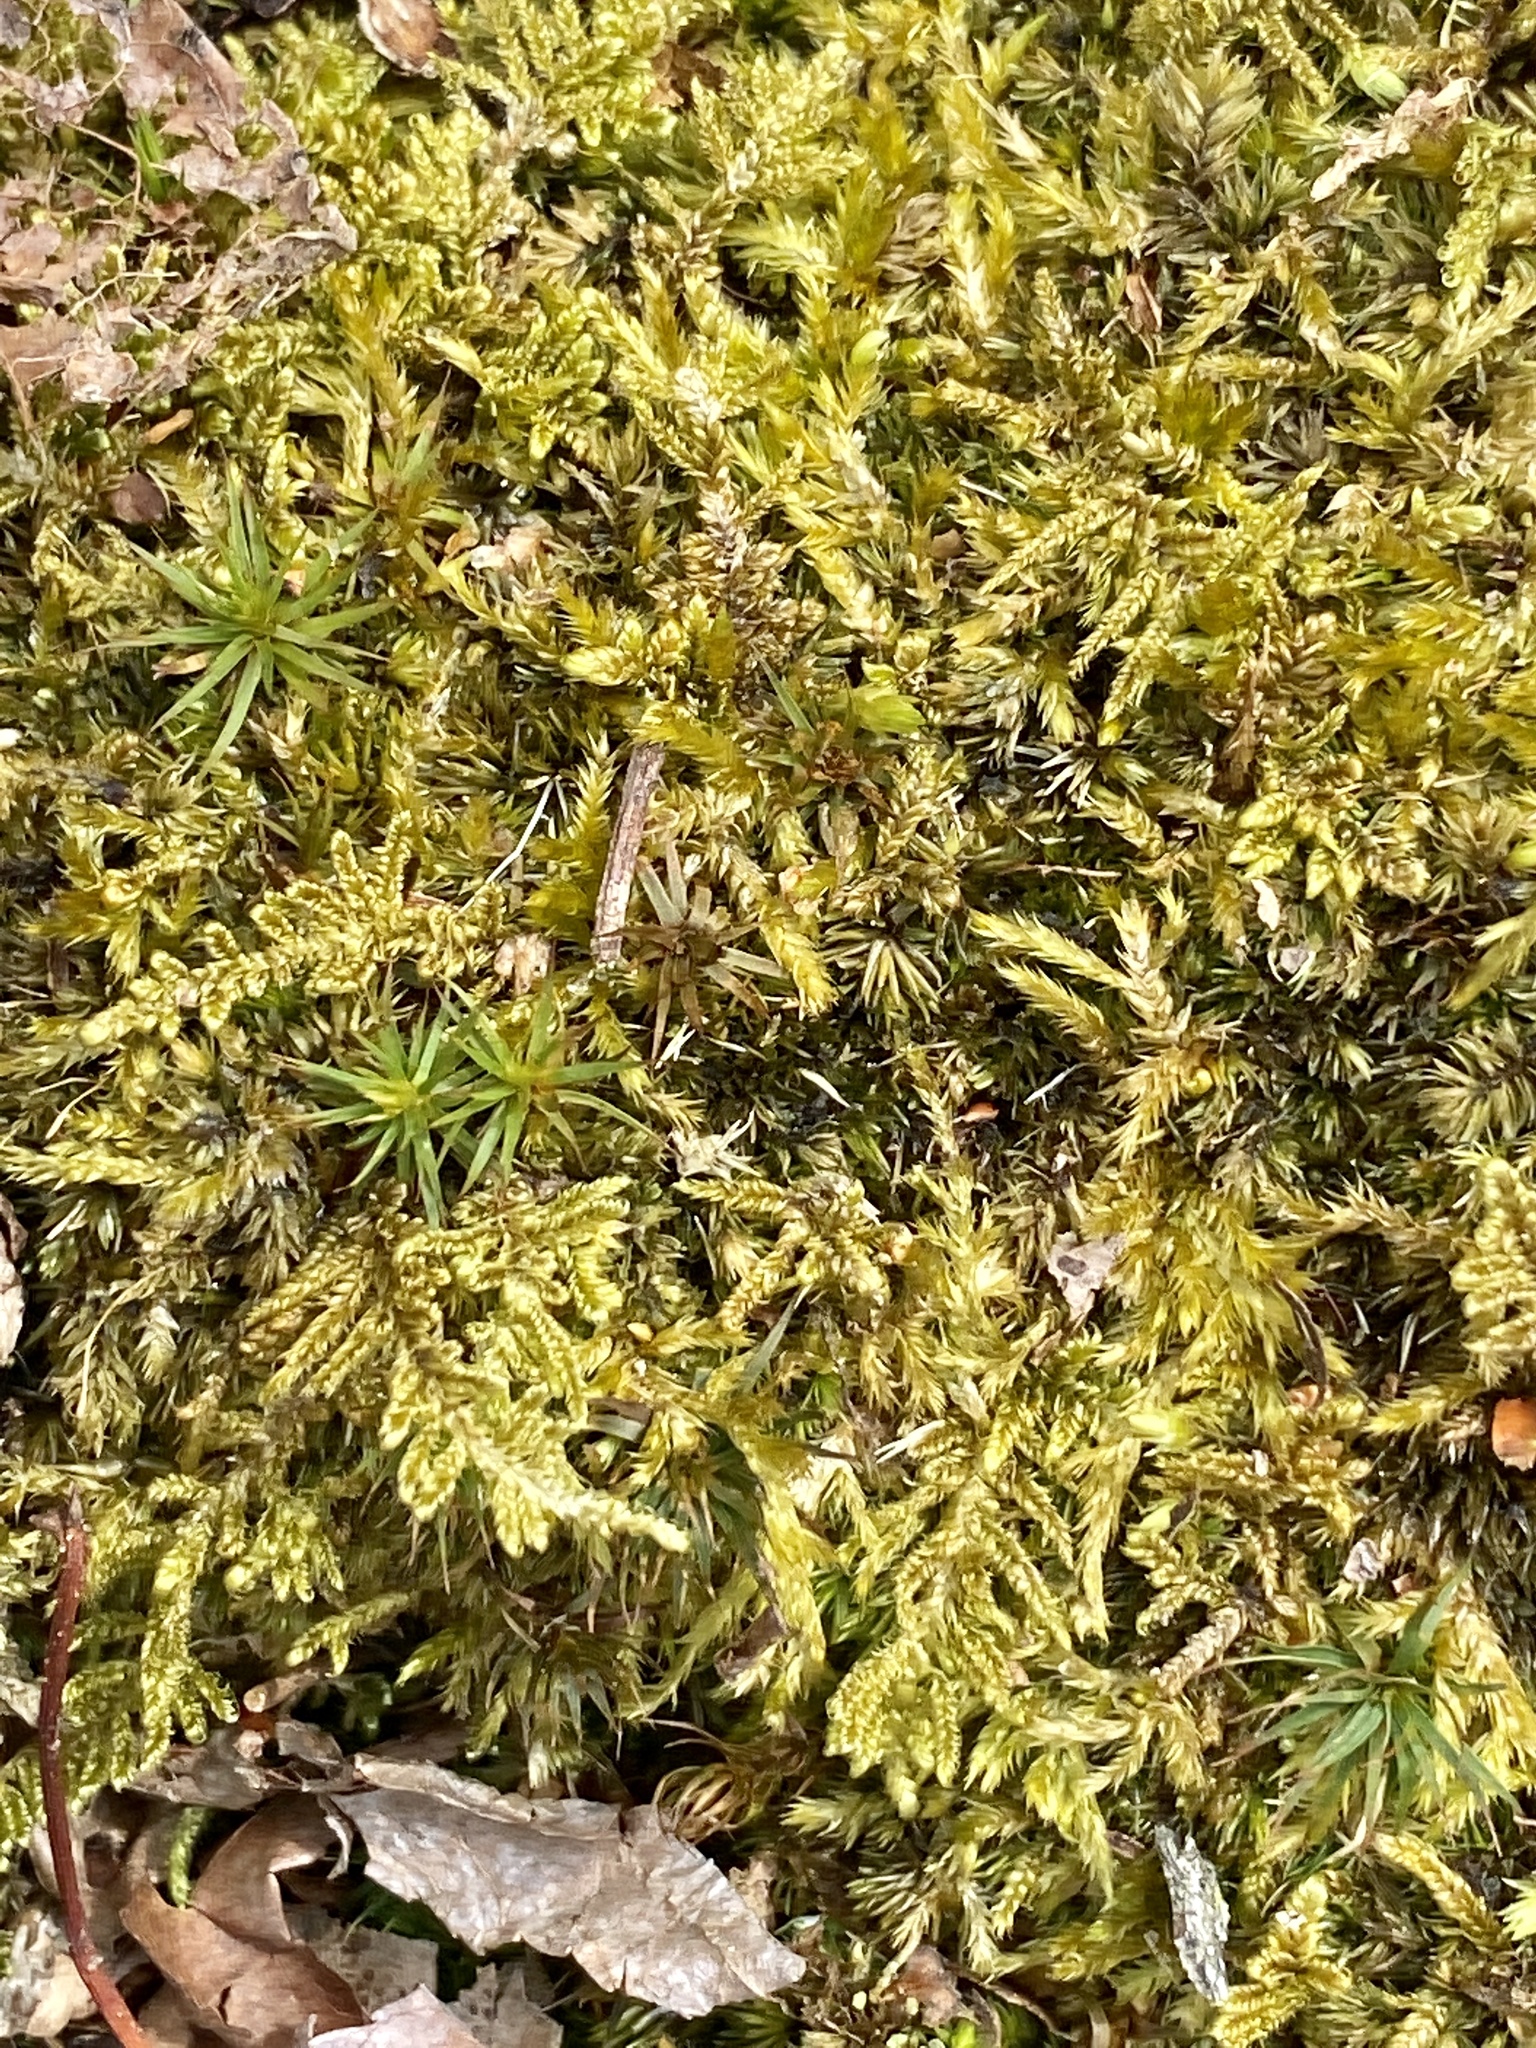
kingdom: Plantae
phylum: Bryophyta
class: Bryopsida
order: Hypnales
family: Callicladiaceae
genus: Callicladium
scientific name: Callicladium imponens
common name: Brocade moss
